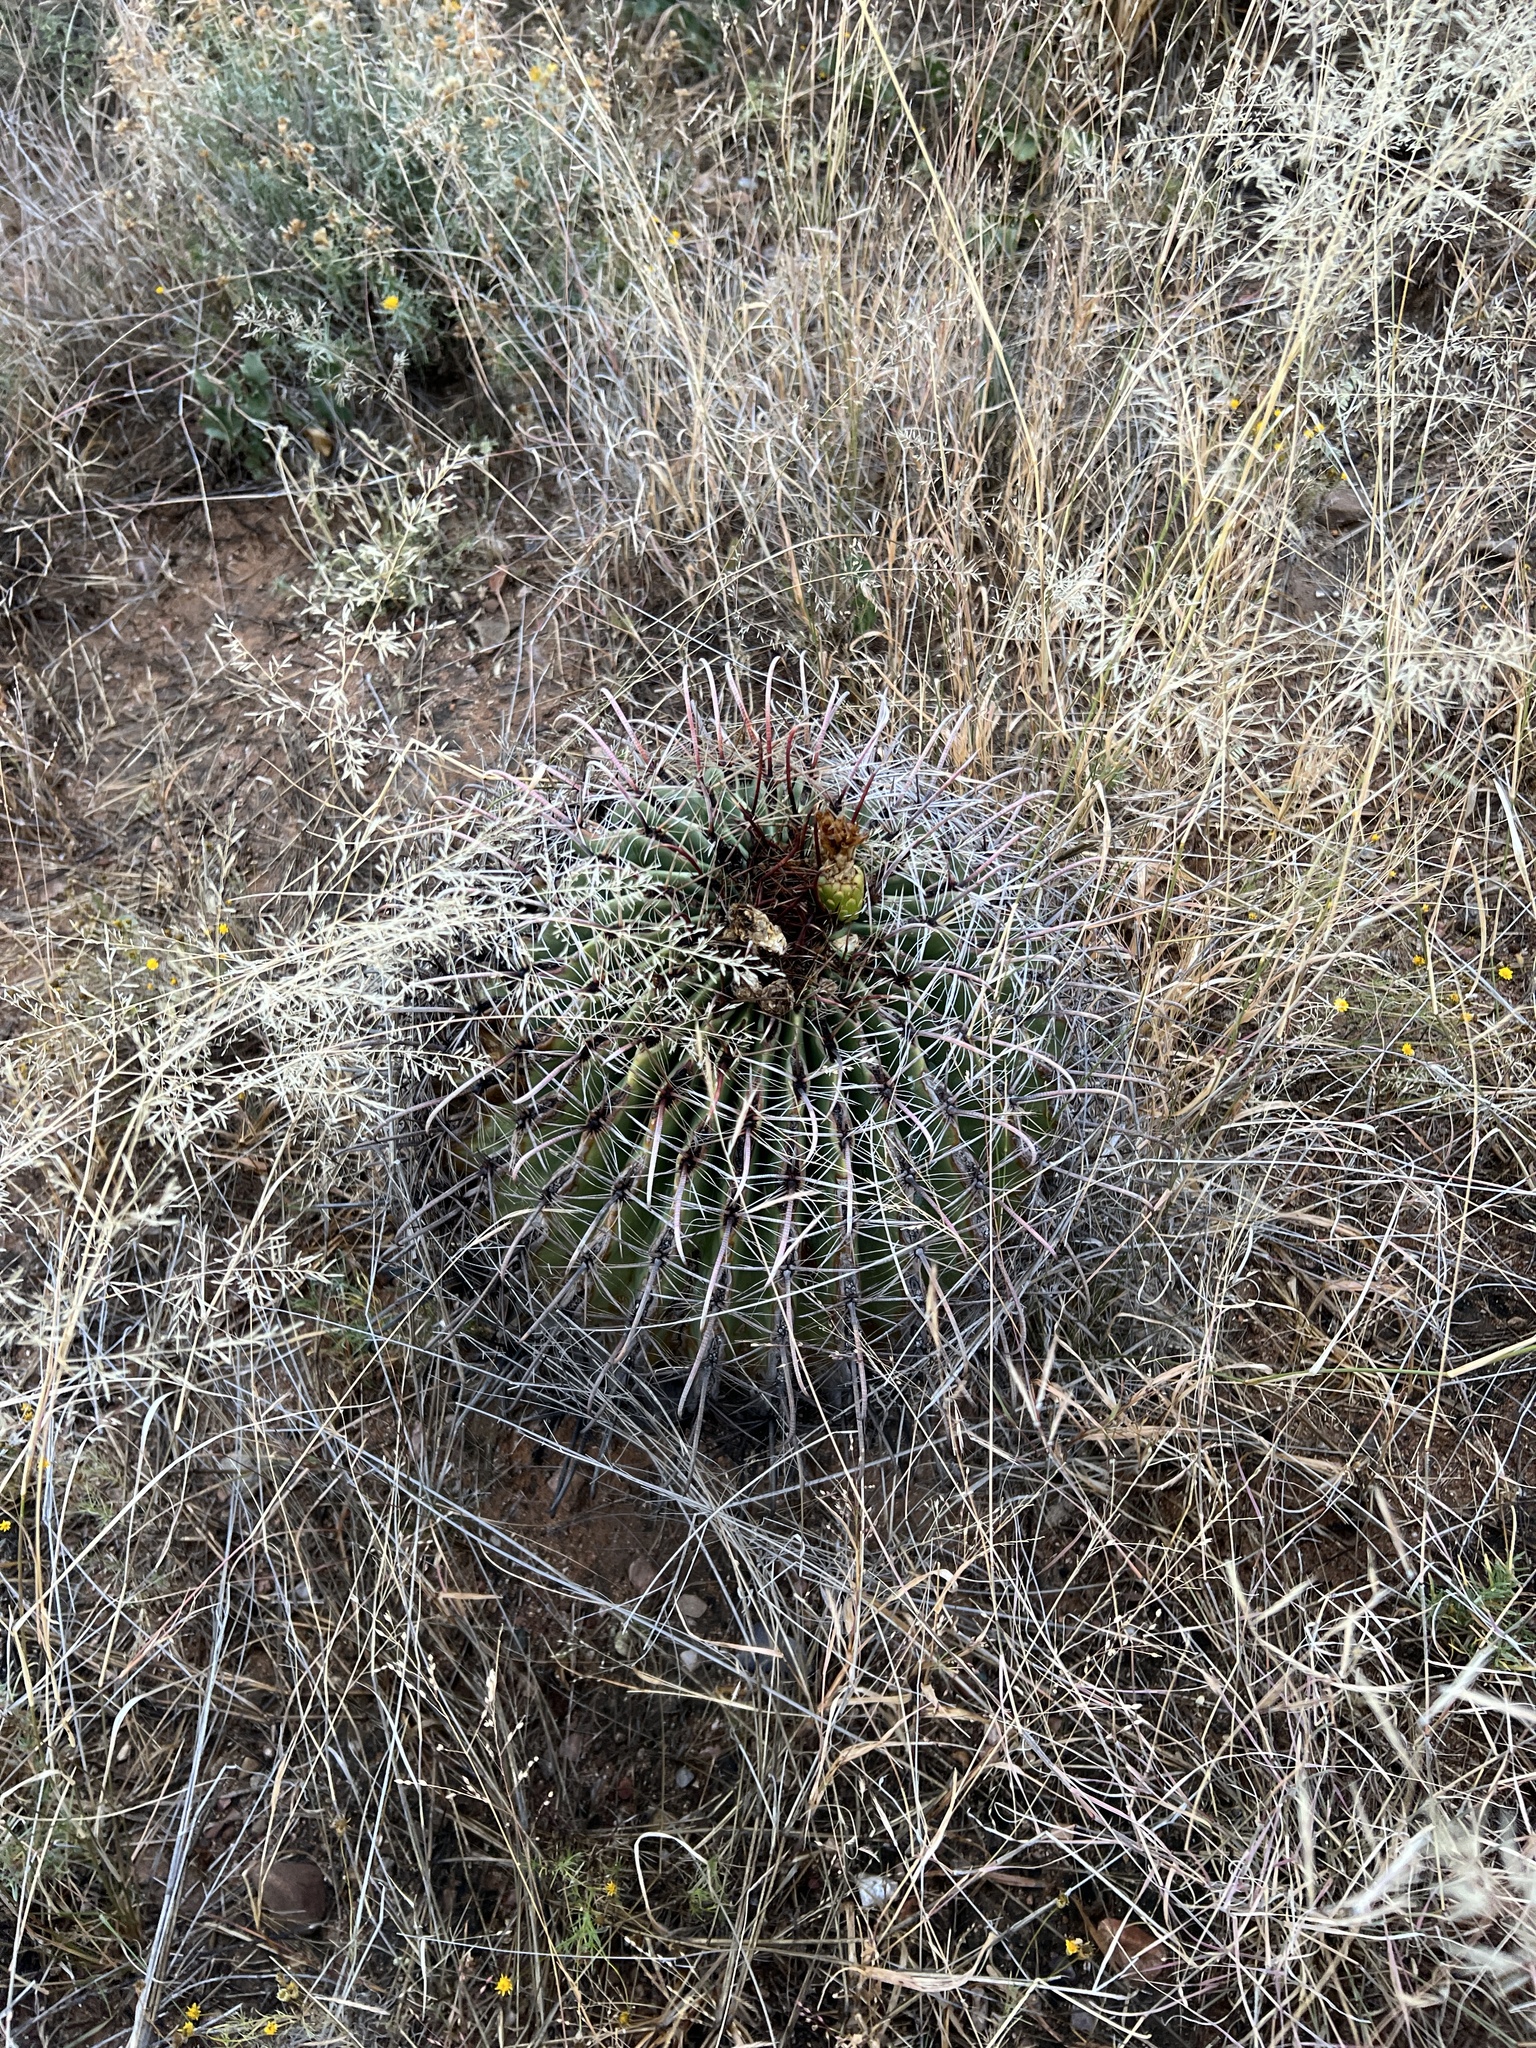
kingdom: Plantae
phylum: Tracheophyta
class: Magnoliopsida
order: Caryophyllales
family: Cactaceae
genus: Ferocactus
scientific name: Ferocactus wislizeni
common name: Candy barrel cactus
